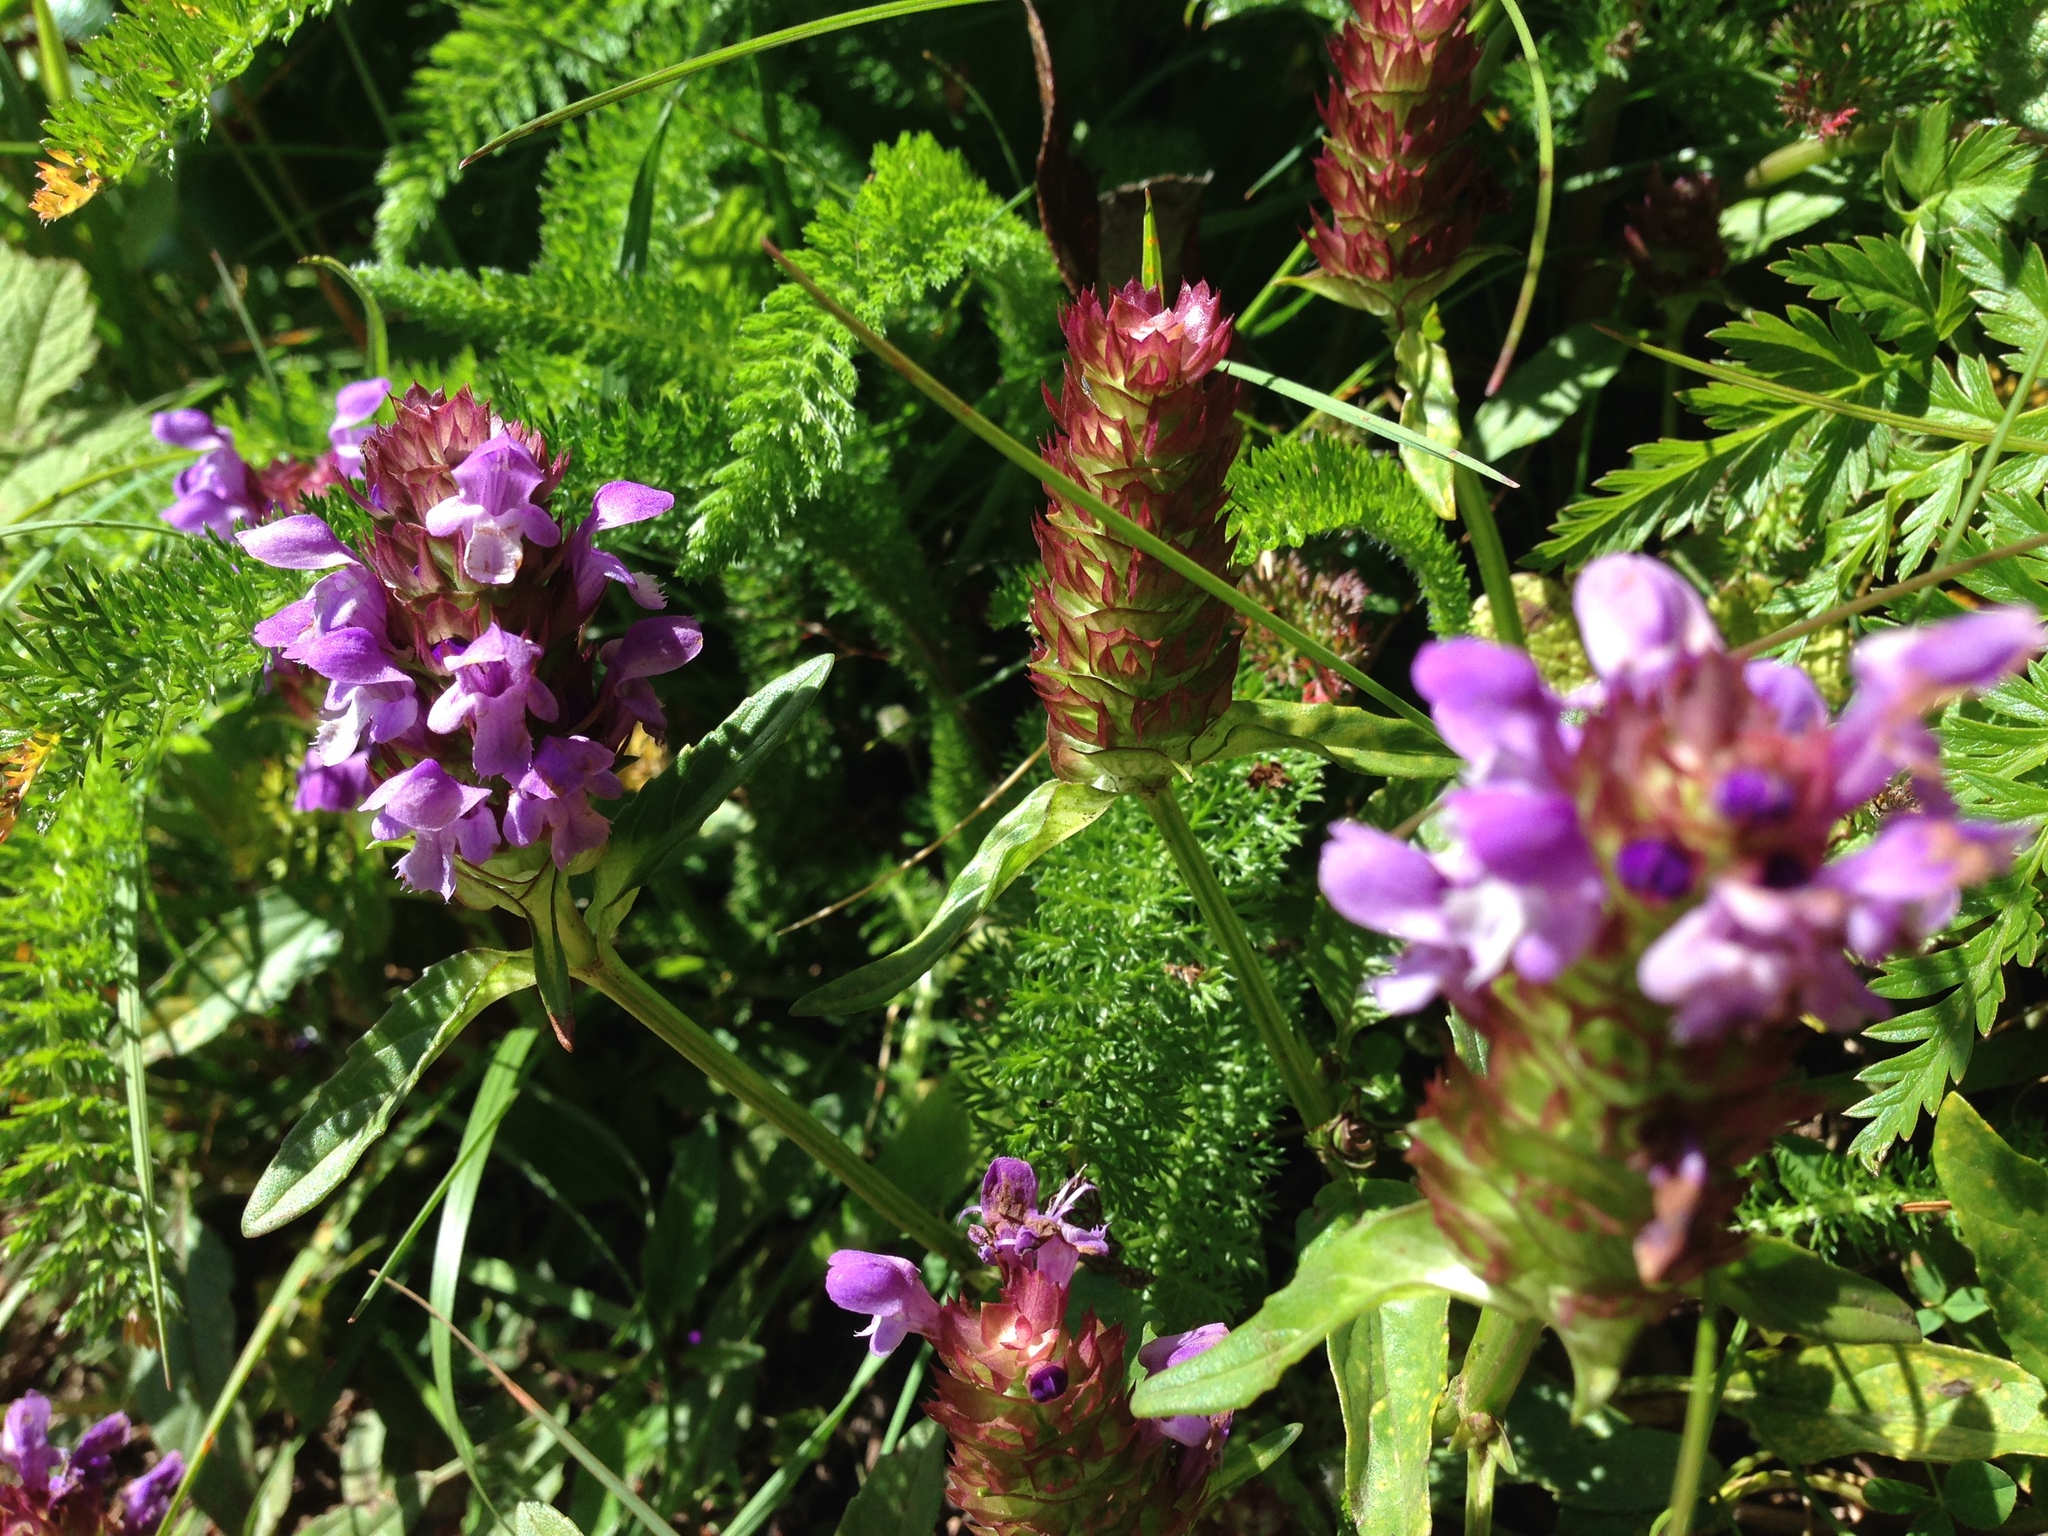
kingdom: Plantae
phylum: Tracheophyta
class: Magnoliopsida
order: Lamiales
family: Lamiaceae
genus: Prunella
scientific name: Prunella vulgaris
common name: Heal-all
